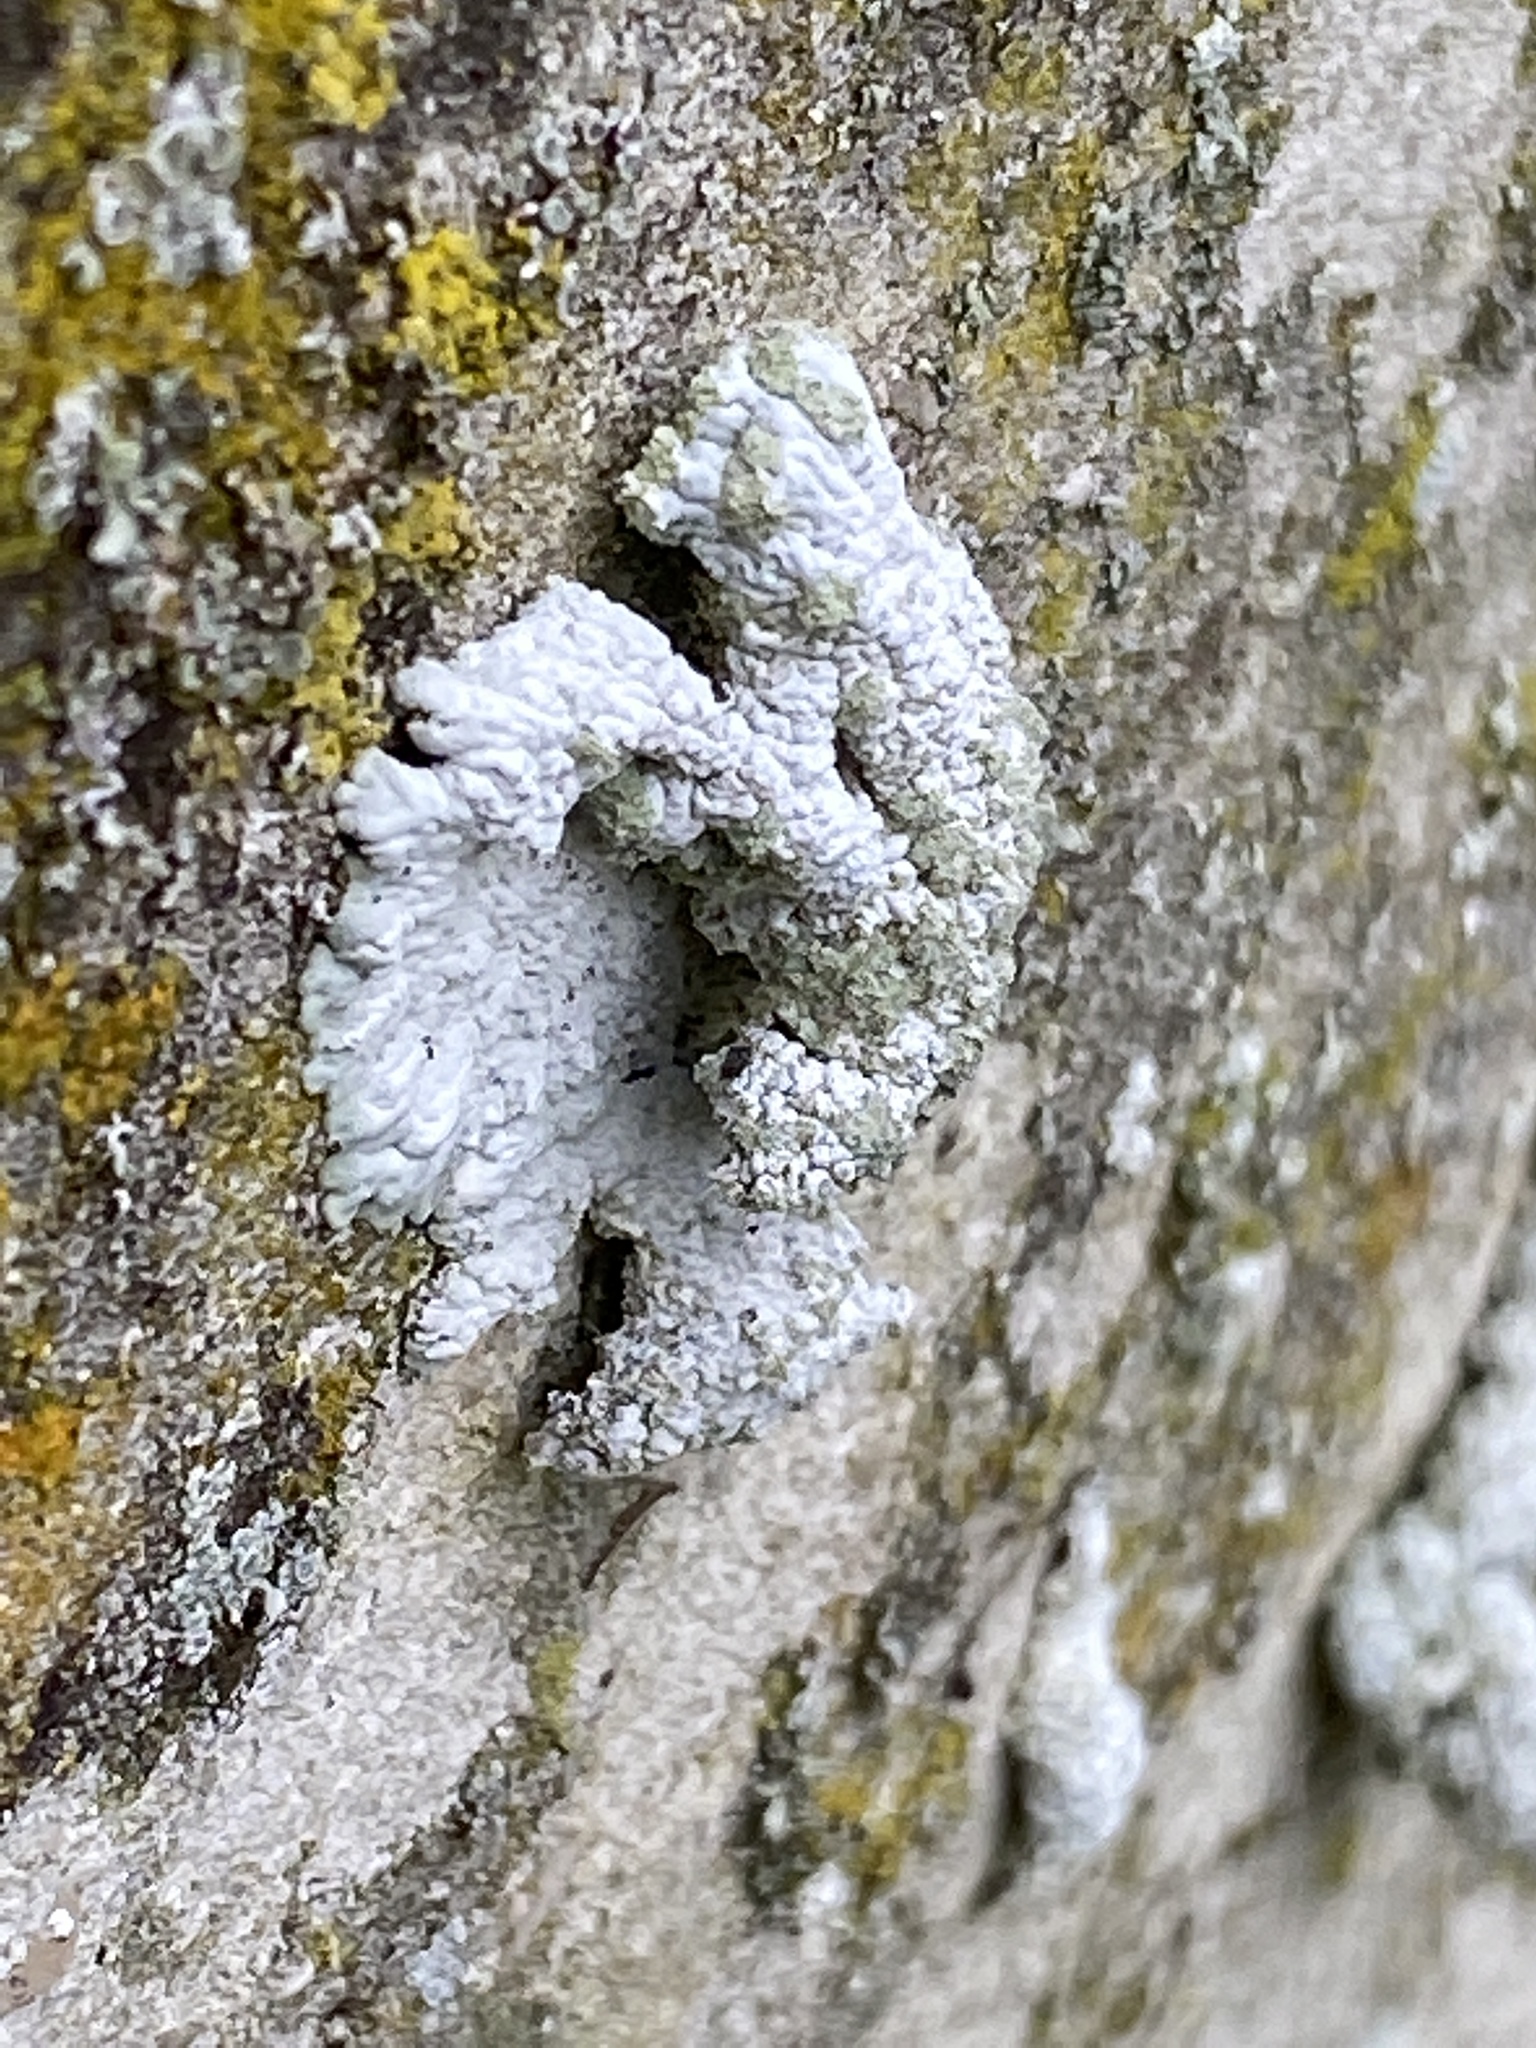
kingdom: Fungi
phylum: Ascomycota
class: Lecanoromycetes
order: Caliciales
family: Caliciaceae
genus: Diploicia
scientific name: Diploicia canescens
